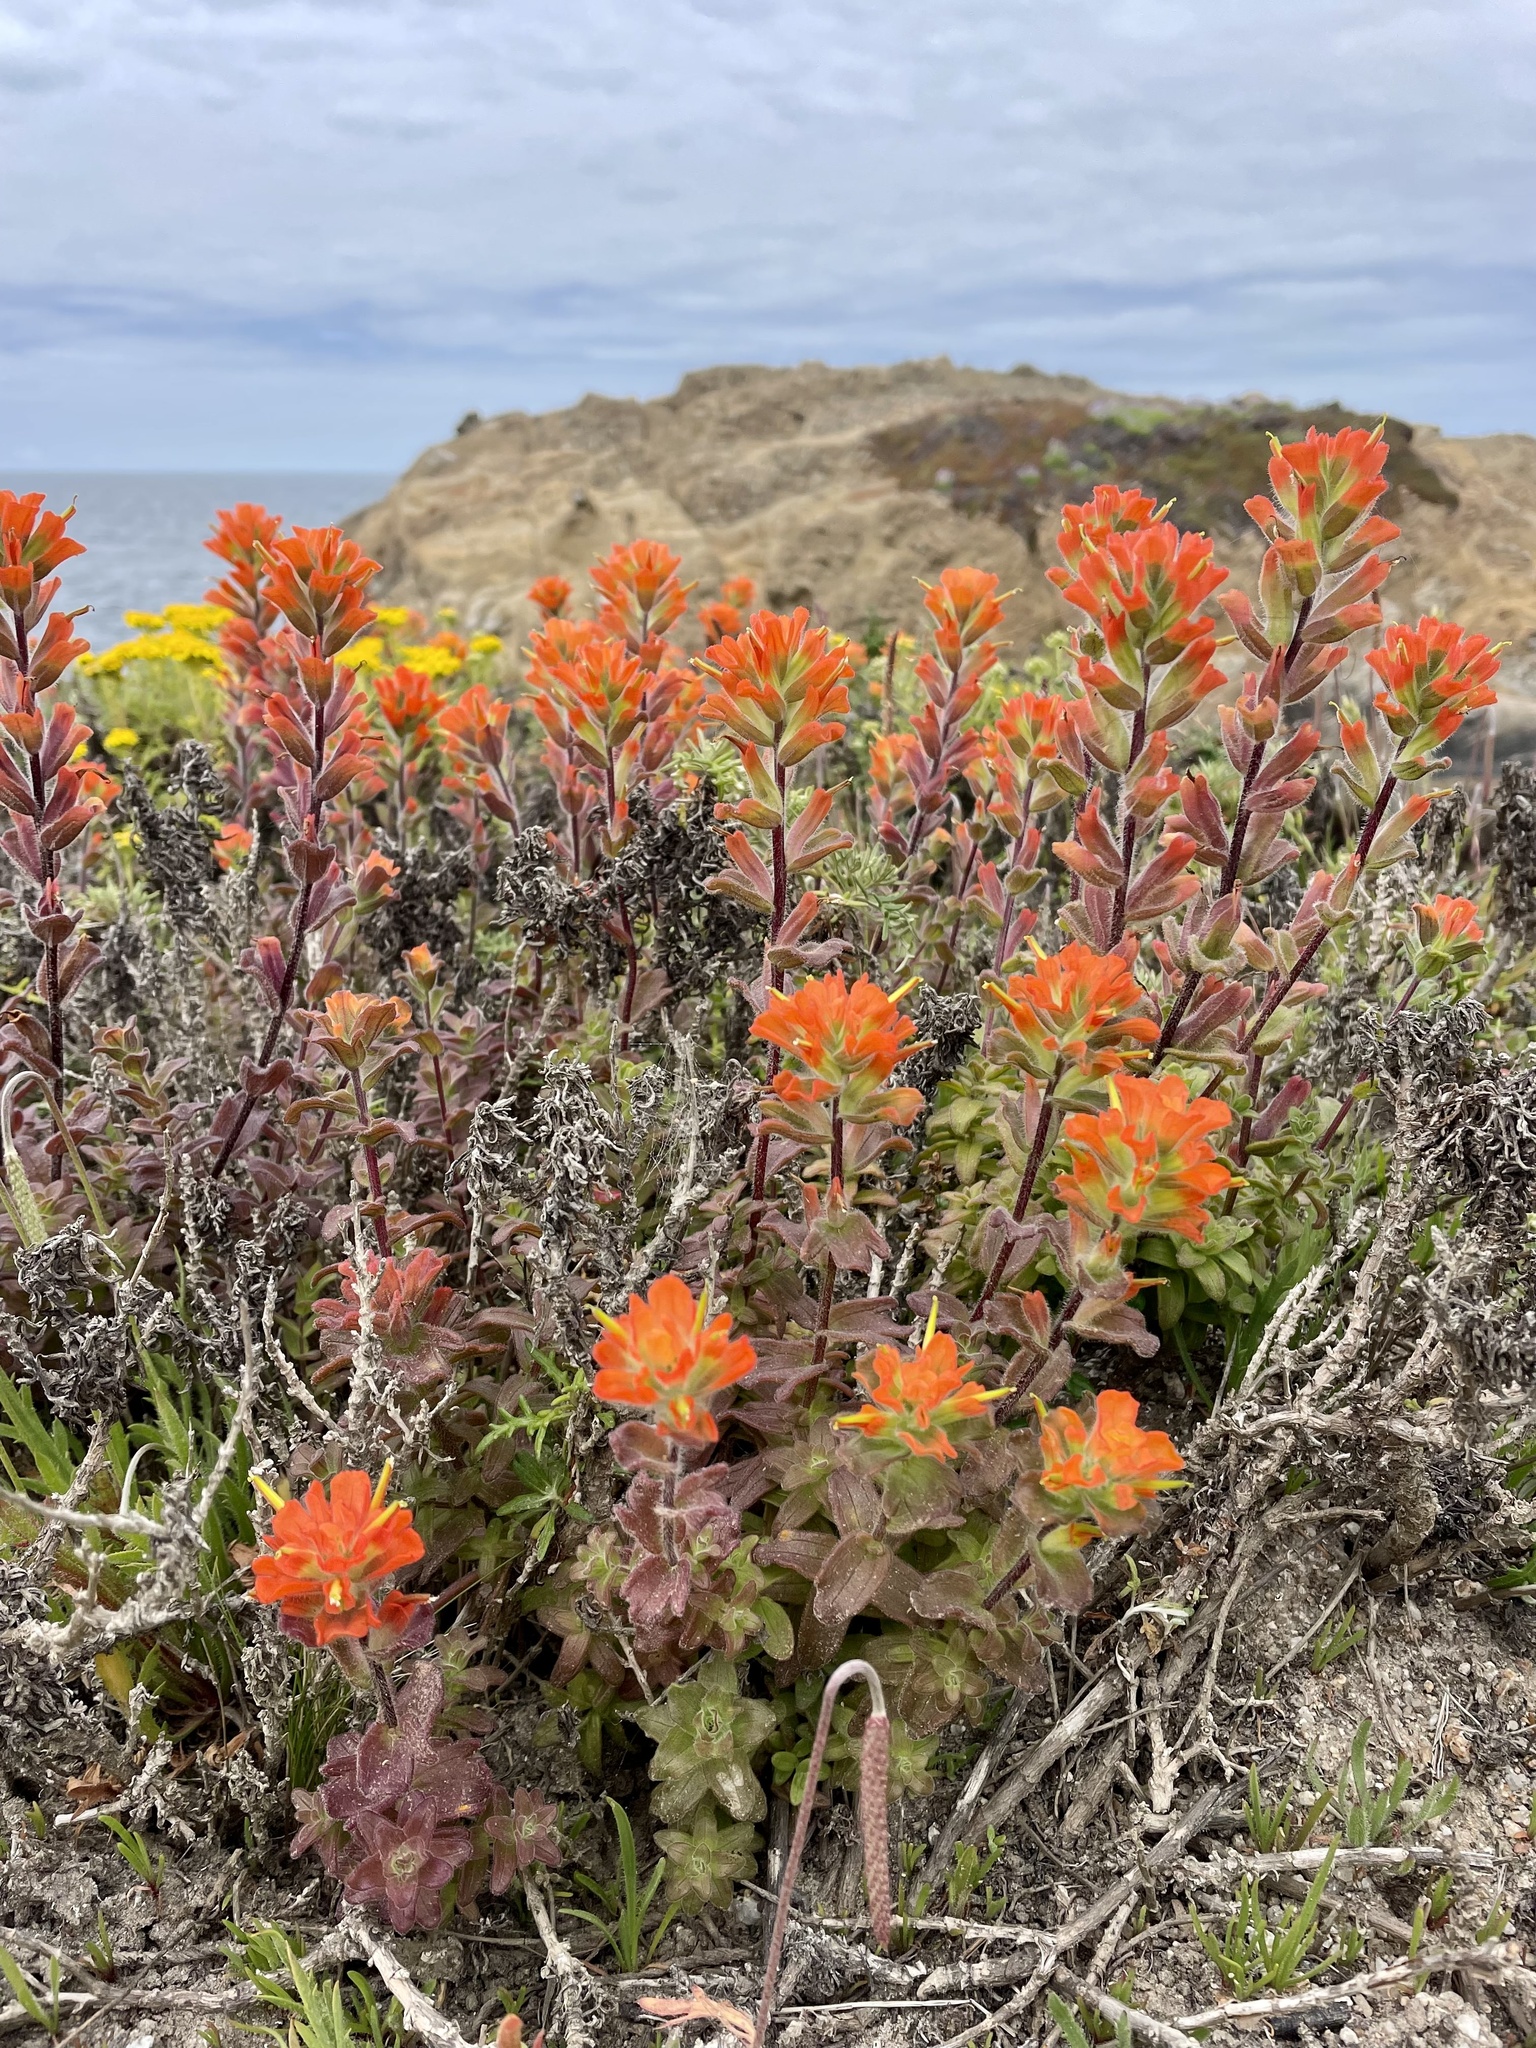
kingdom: Plantae
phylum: Tracheophyta
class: Magnoliopsida
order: Lamiales
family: Orobanchaceae
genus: Castilleja
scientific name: Castilleja latifolia
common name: Monterey indian paintbrush
